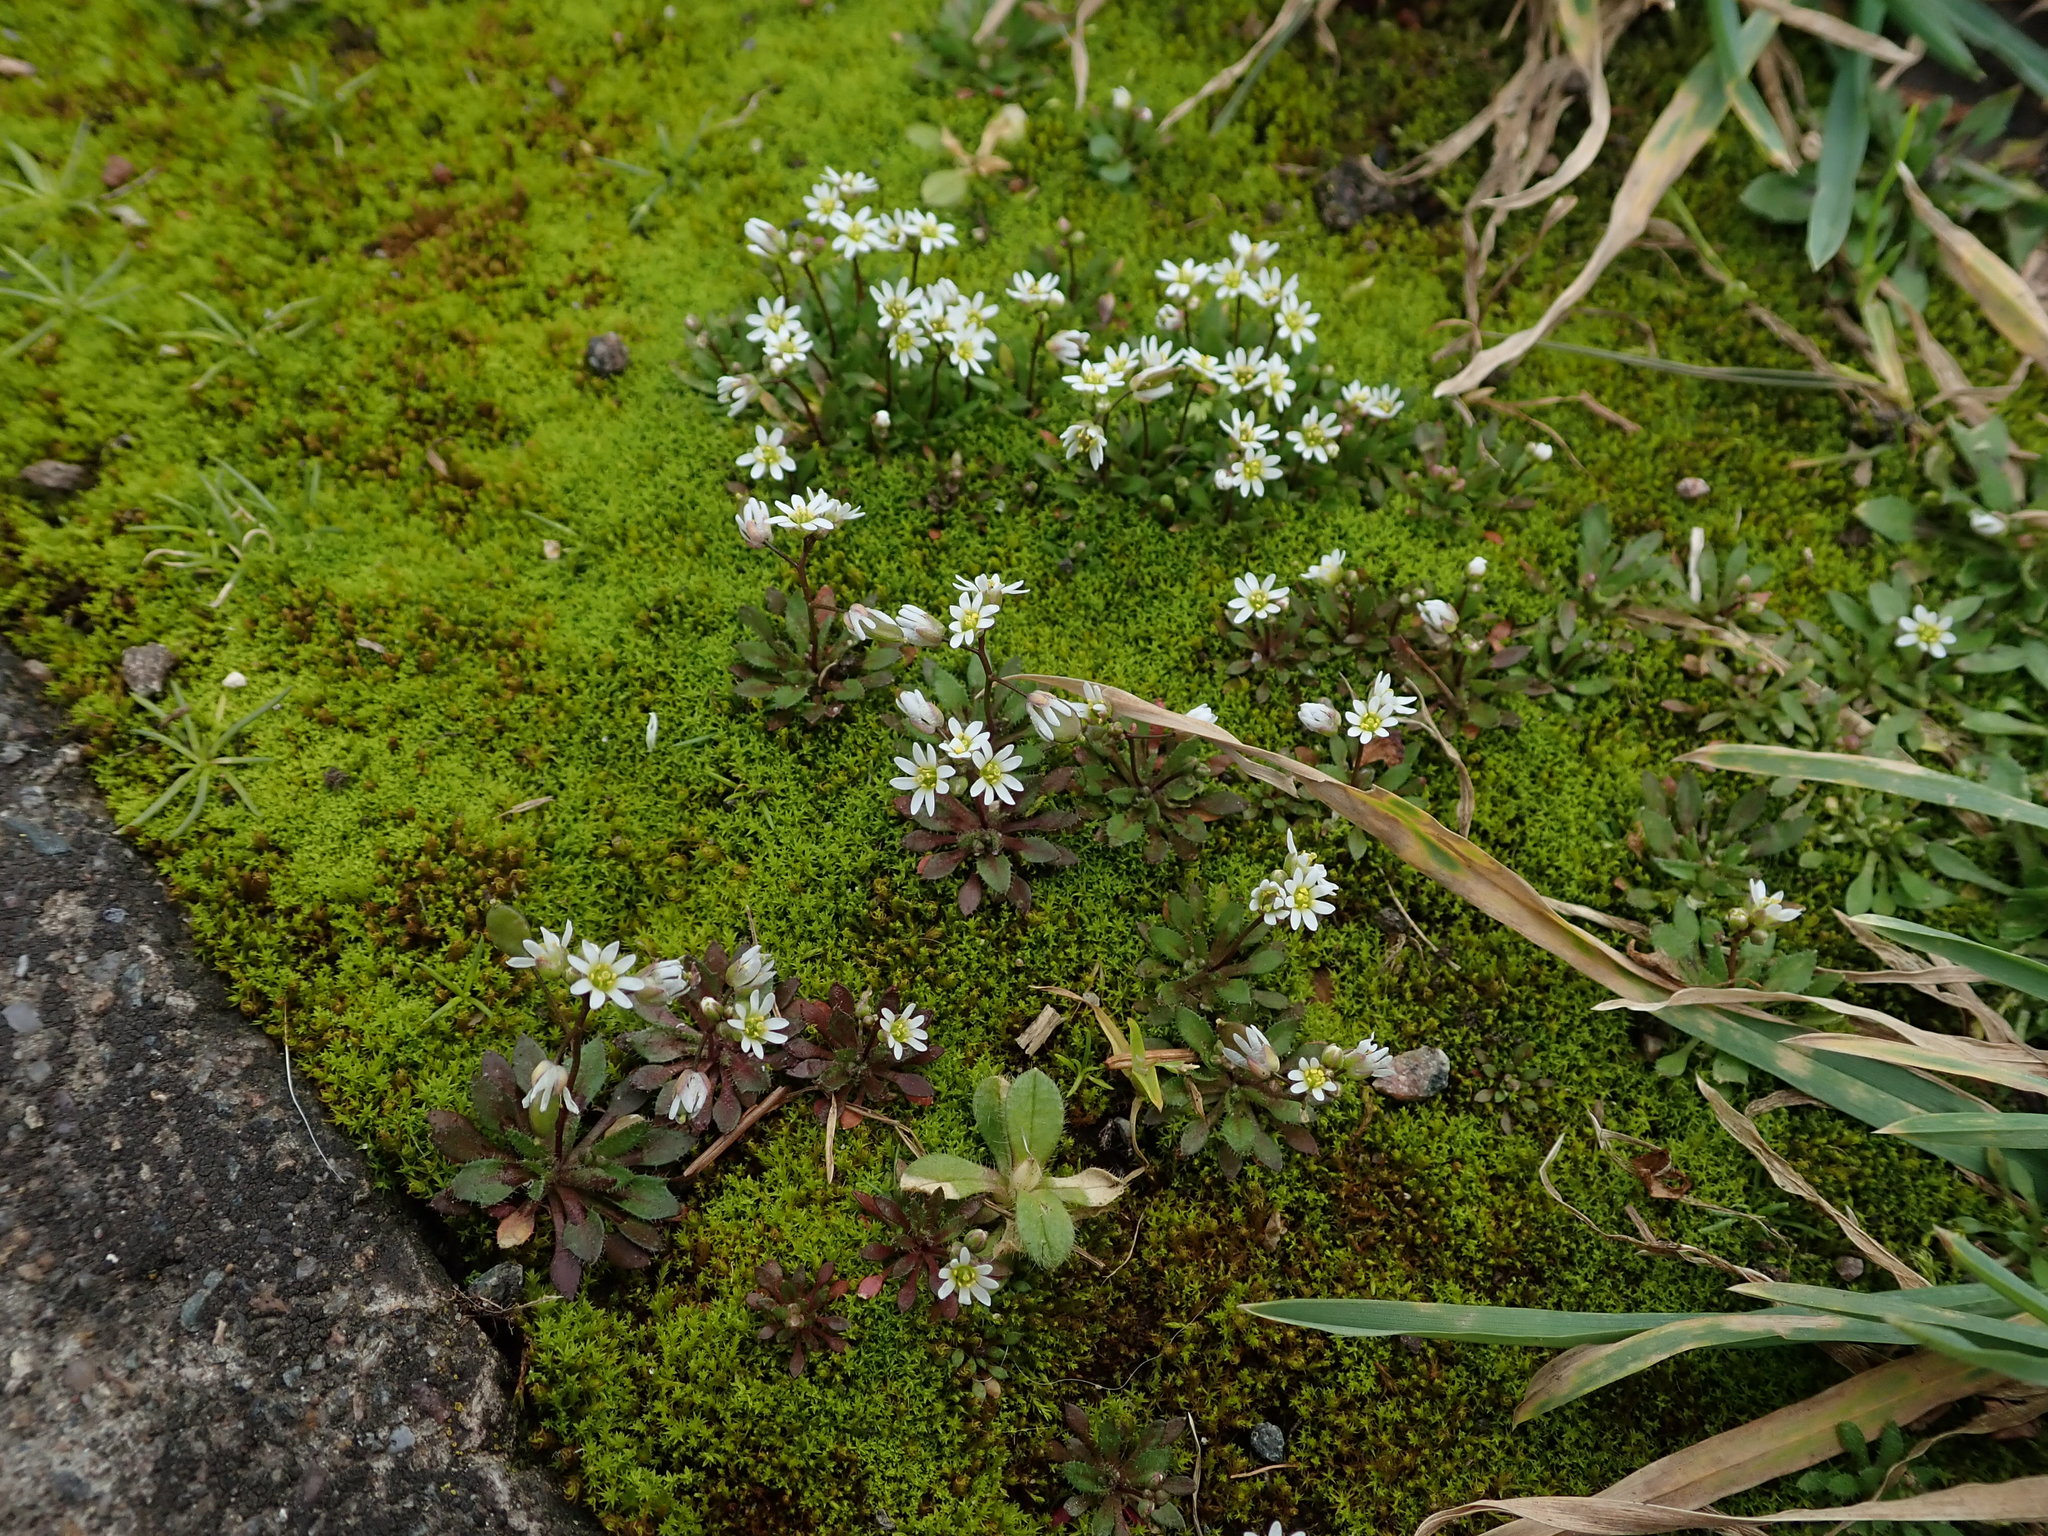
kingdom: Plantae
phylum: Tracheophyta
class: Magnoliopsida
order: Brassicales
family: Brassicaceae
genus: Draba
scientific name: Draba verna
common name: Spring draba
